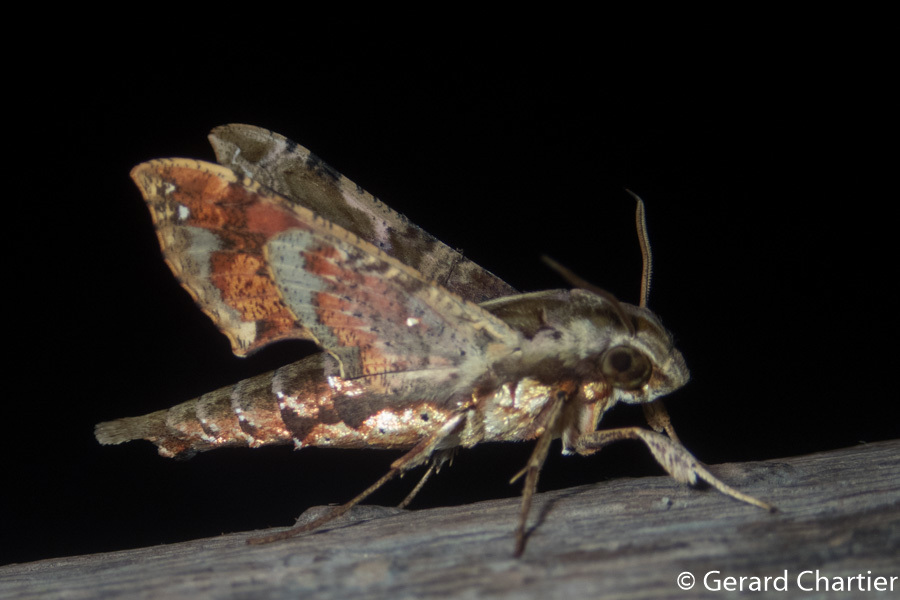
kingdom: Animalia
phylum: Arthropoda
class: Insecta
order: Lepidoptera
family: Sphingidae
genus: Eupanacra
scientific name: Eupanacra mydon
